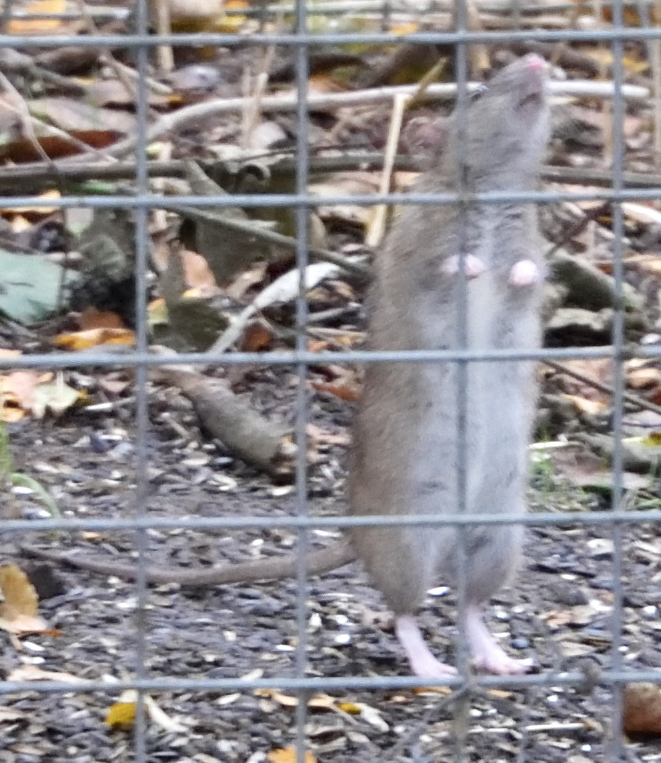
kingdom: Animalia
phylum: Chordata
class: Mammalia
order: Rodentia
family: Muridae
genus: Rattus
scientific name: Rattus norvegicus
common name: Brown rat
